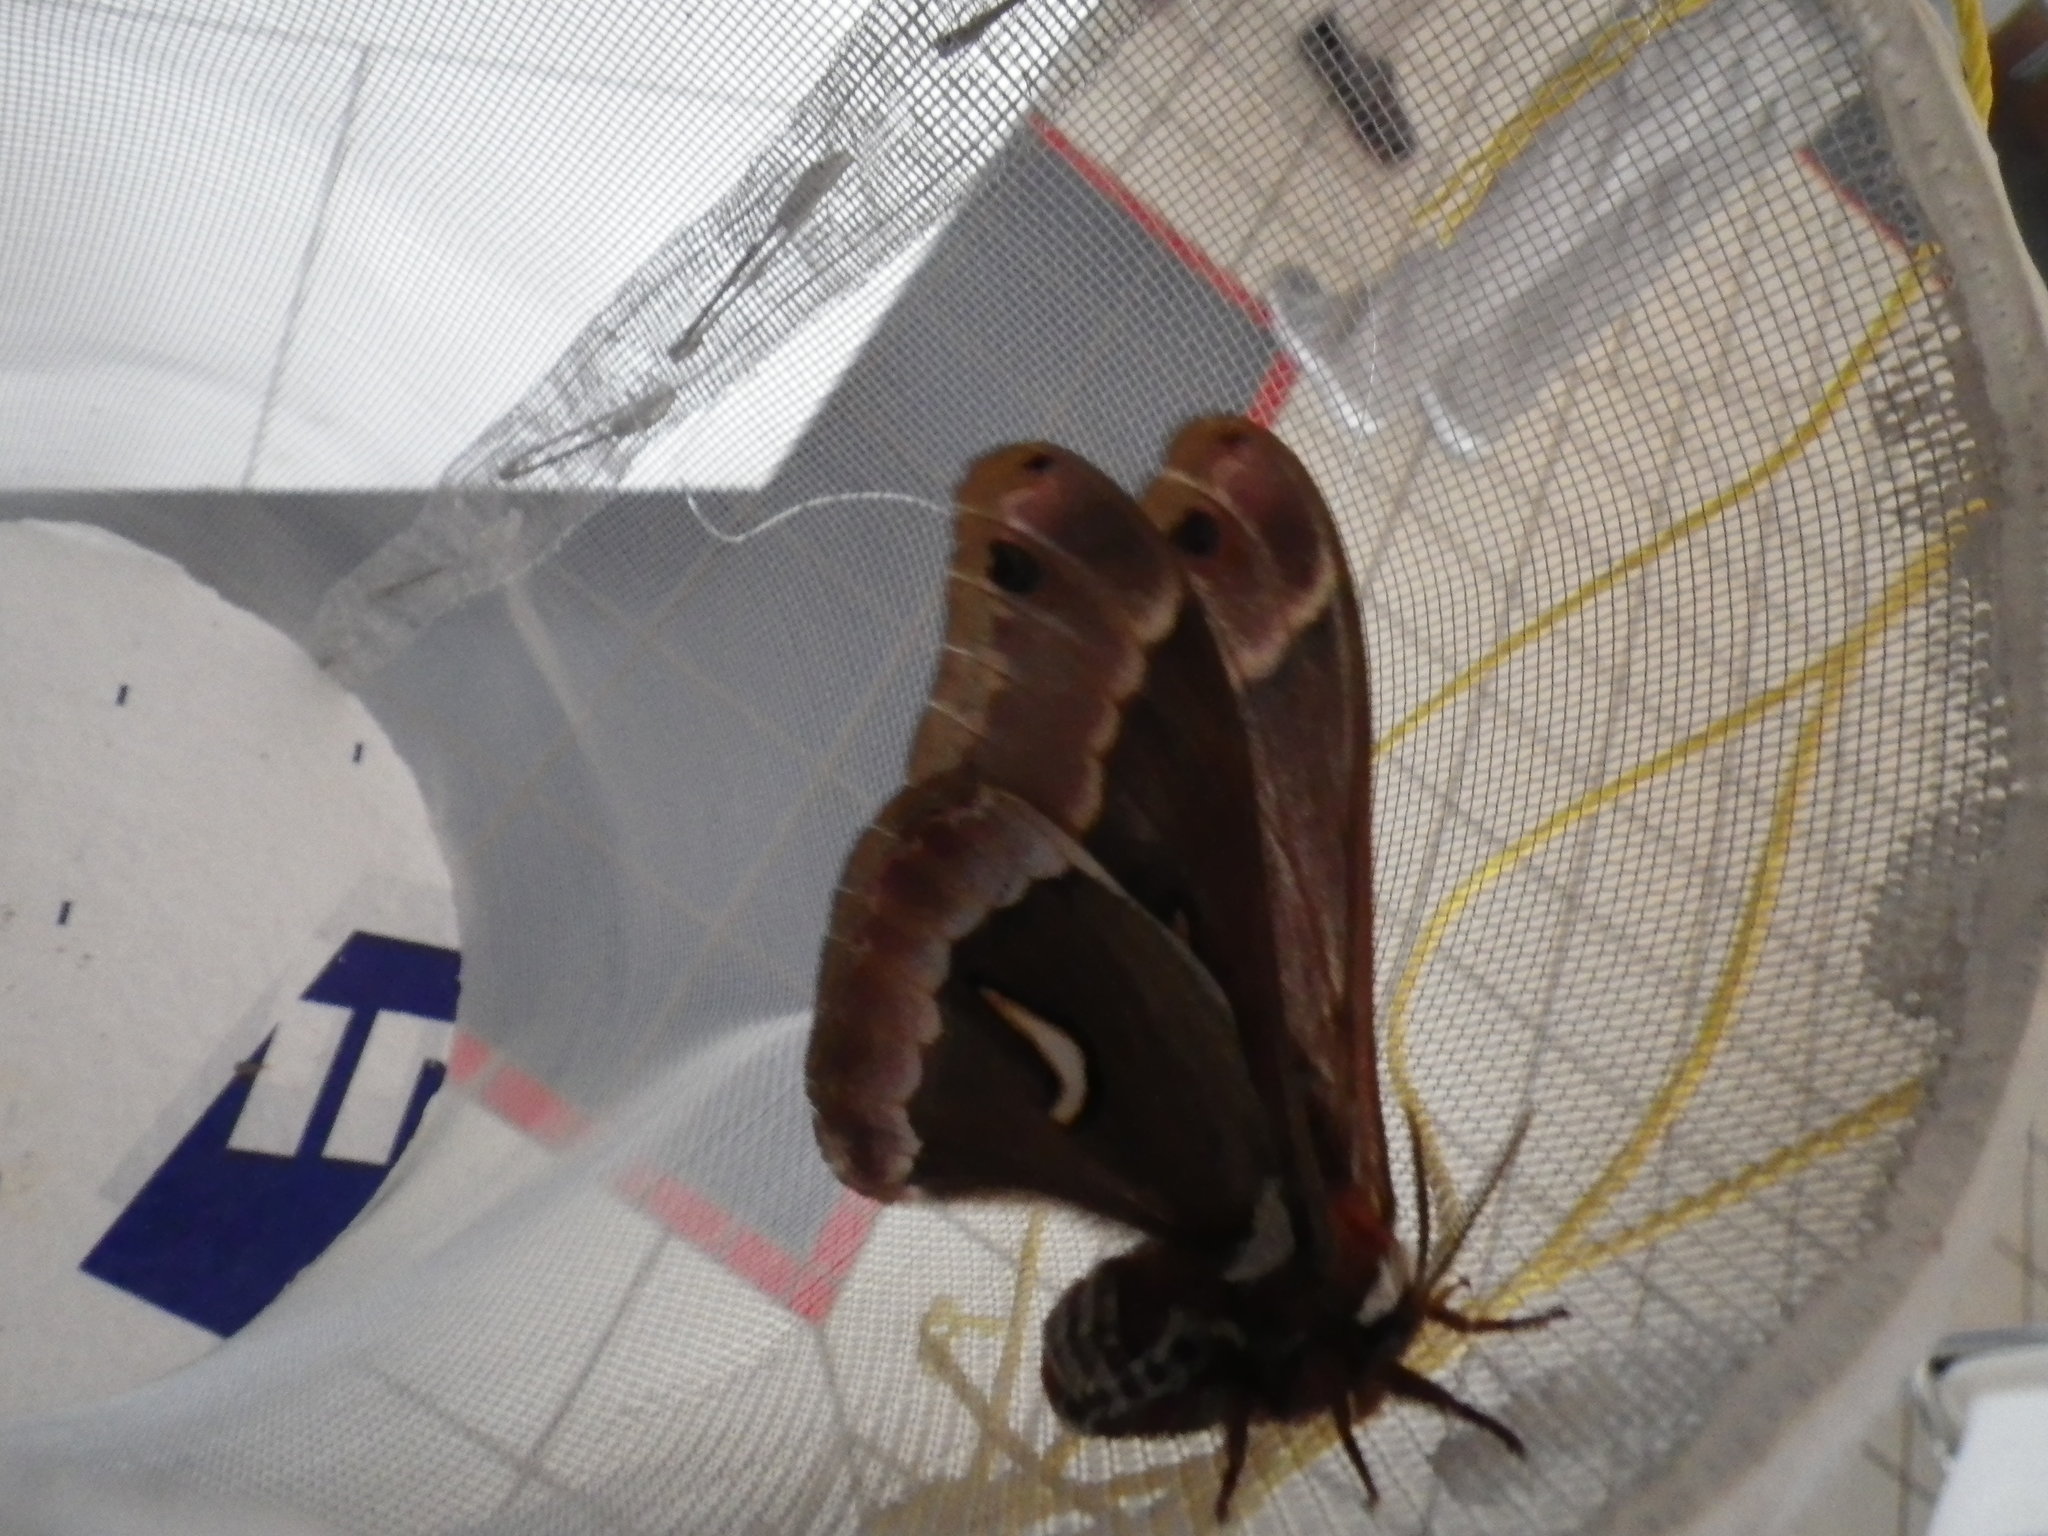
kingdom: Animalia
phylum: Arthropoda
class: Insecta
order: Lepidoptera
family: Saturniidae
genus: Hyalophora
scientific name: Hyalophora euryalus
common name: Ceanothus silkmoth
